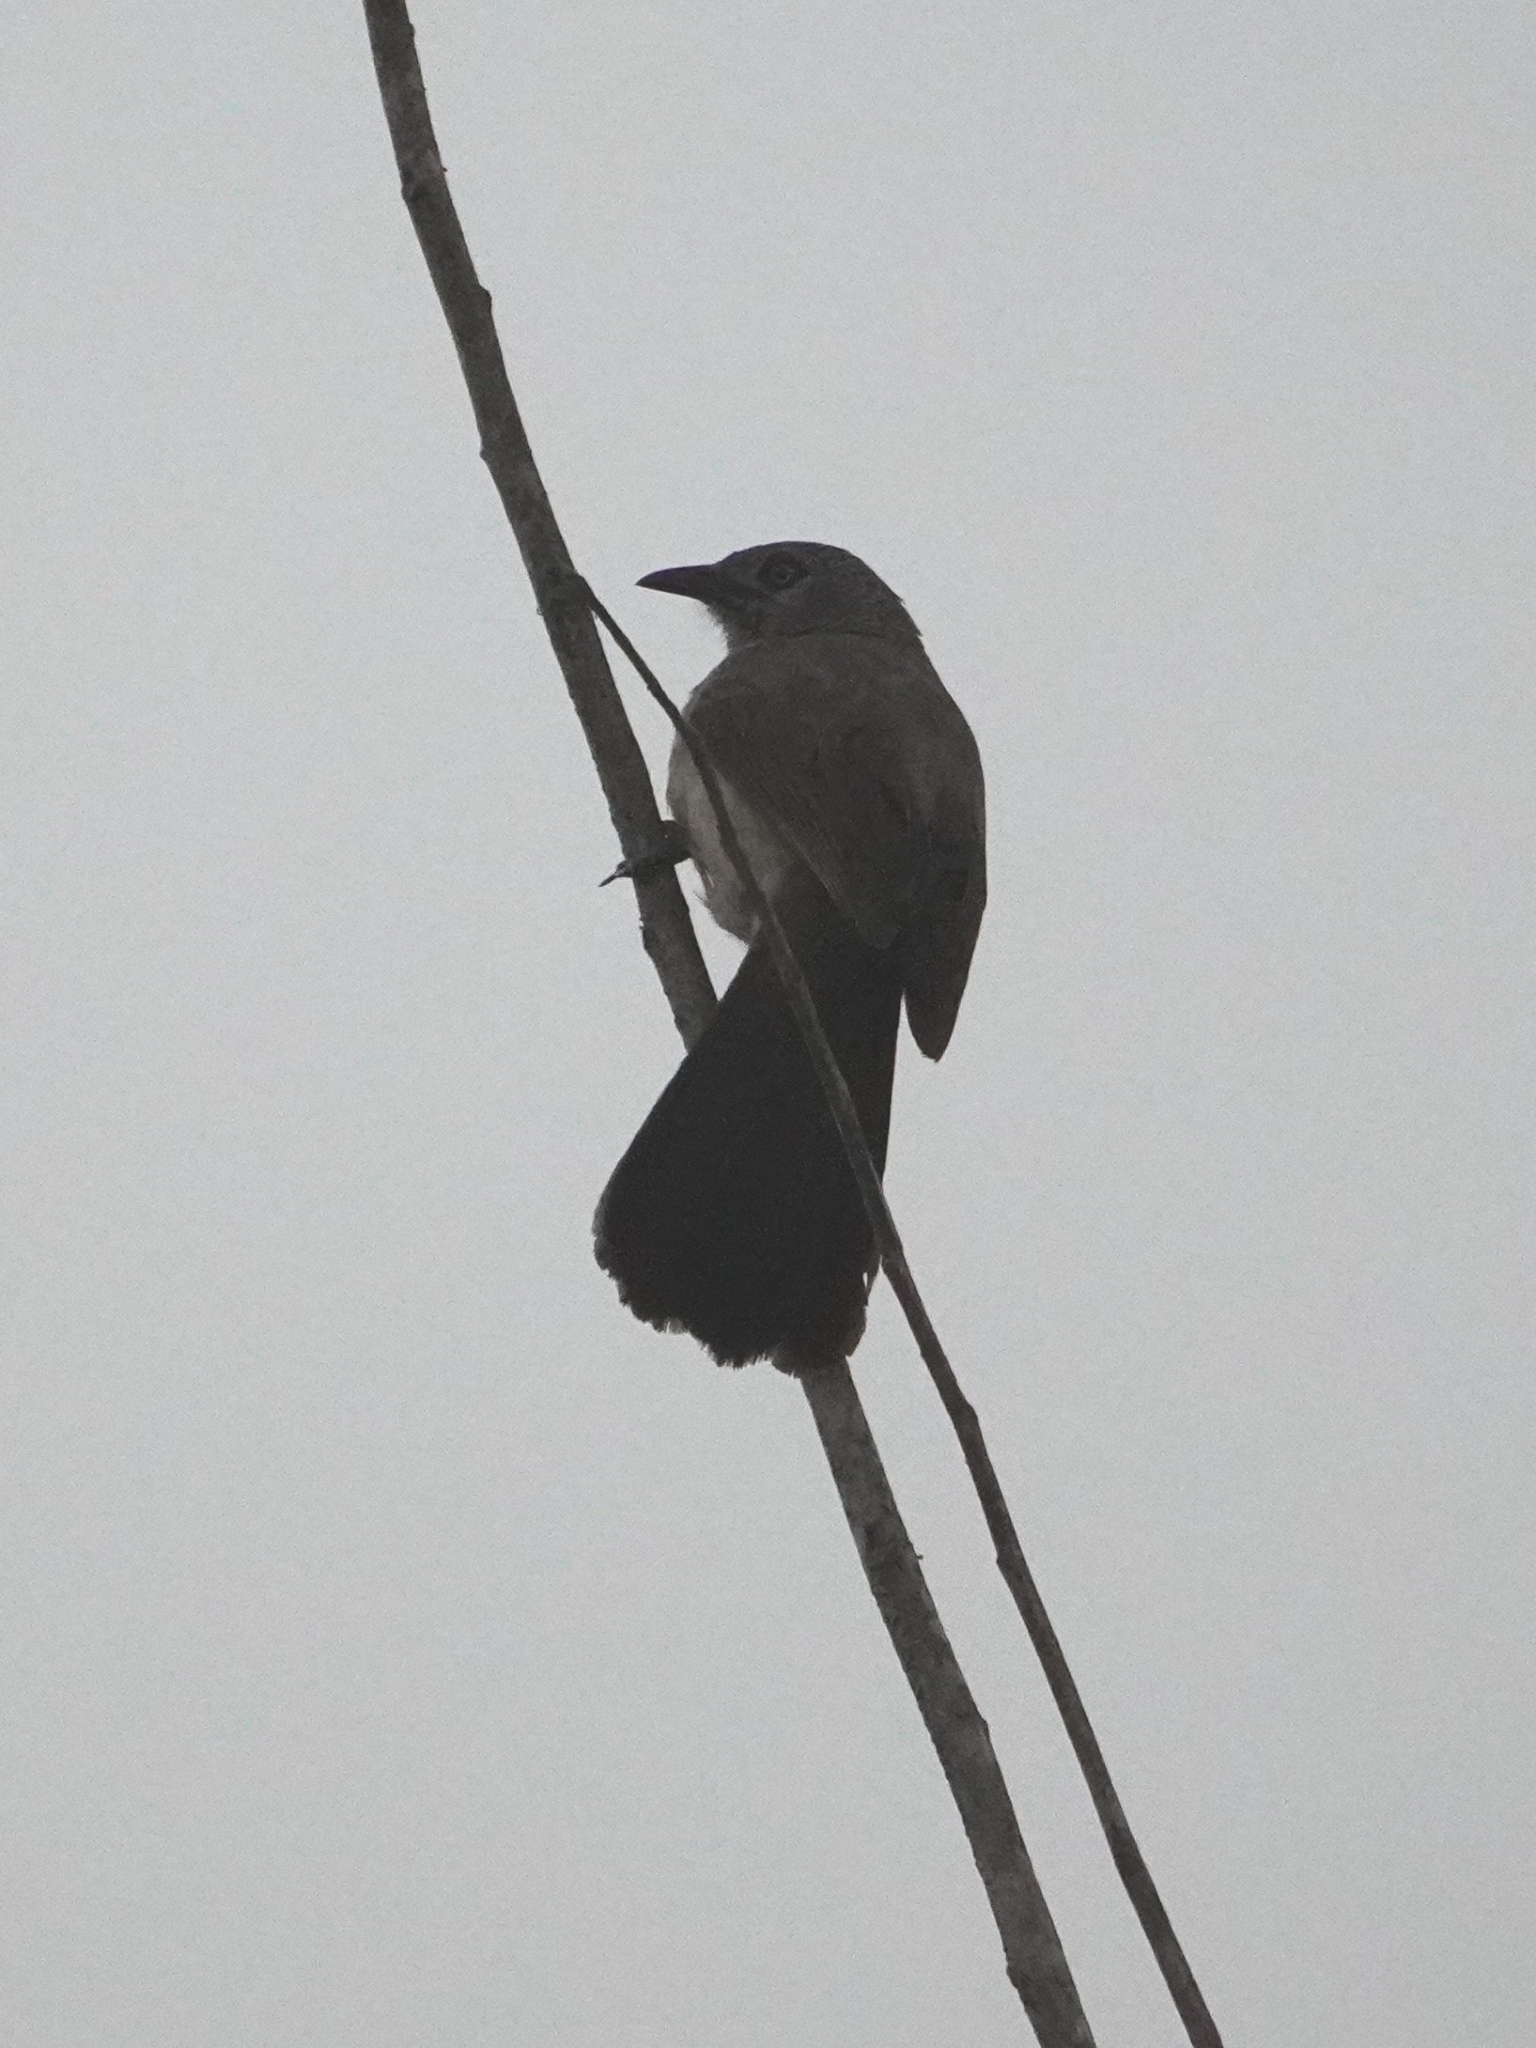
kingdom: Animalia
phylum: Chordata
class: Aves
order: Passeriformes
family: Leiothrichidae
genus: Turdoides
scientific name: Turdoides plebejus
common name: Brown babbler
